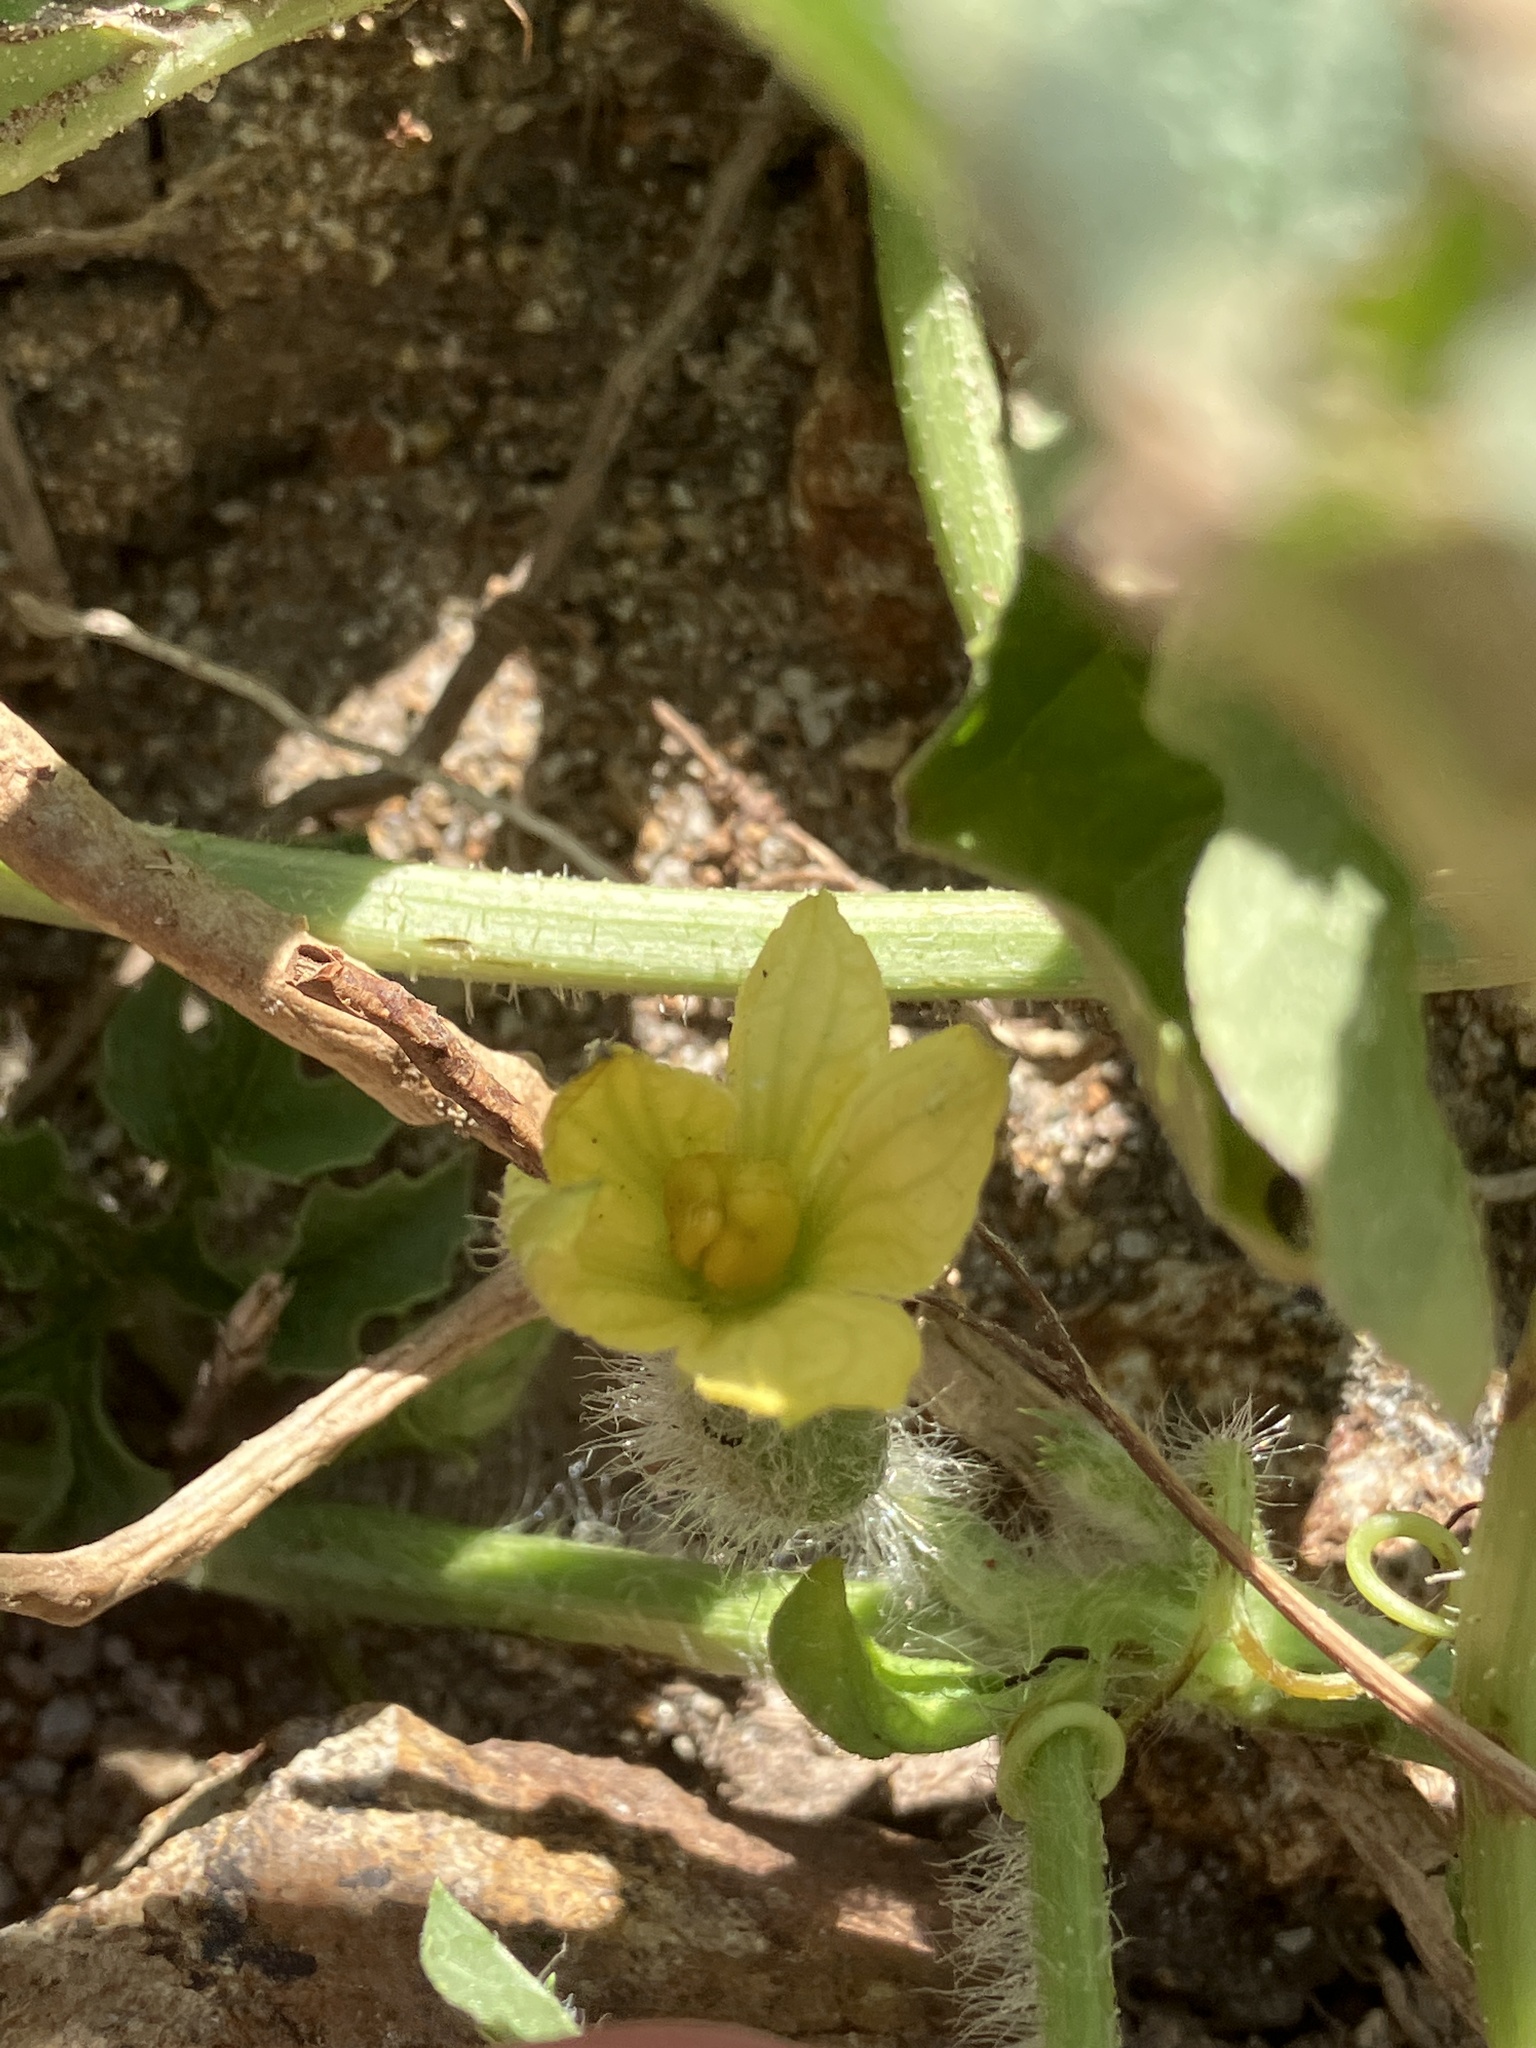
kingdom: Plantae
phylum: Tracheophyta
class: Magnoliopsida
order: Cucurbitales
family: Cucurbitaceae
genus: Citrullus
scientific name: Citrullus lanatus
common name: Watermelon
